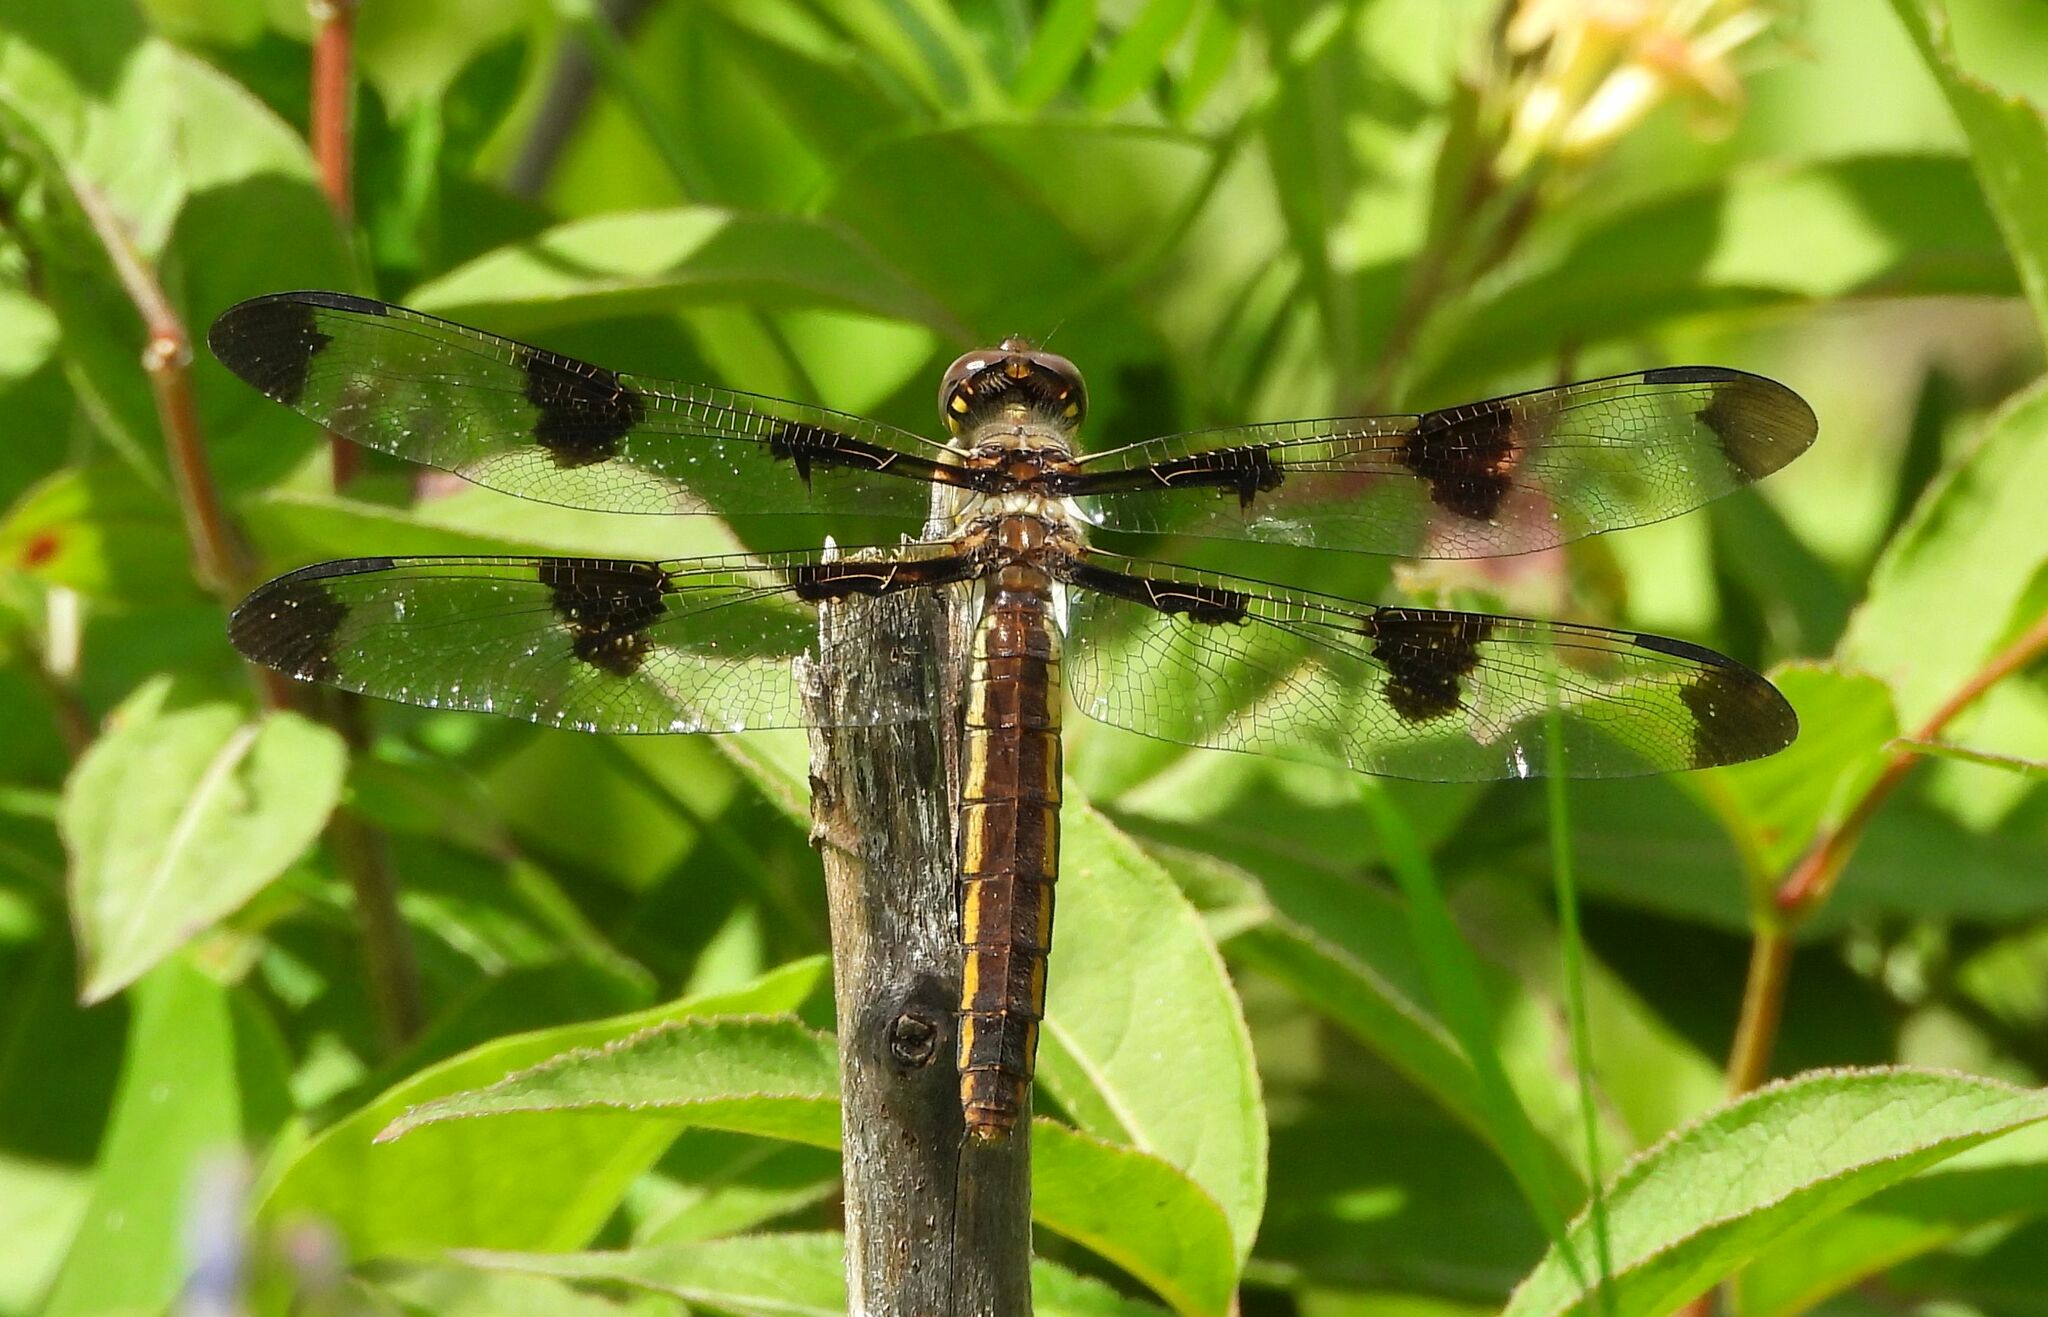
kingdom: Animalia
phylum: Arthropoda
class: Insecta
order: Odonata
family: Libellulidae
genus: Libellula
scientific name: Libellula pulchella
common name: Twelve-spotted skimmer
